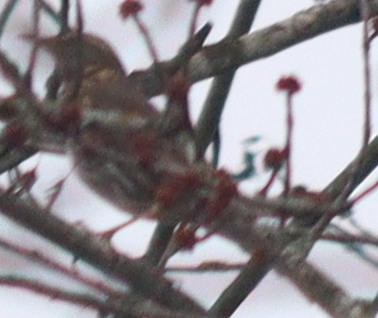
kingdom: Animalia
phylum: Chordata
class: Aves
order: Passeriformes
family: Turdidae
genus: Turdus
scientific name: Turdus iliacus
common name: Redwing
